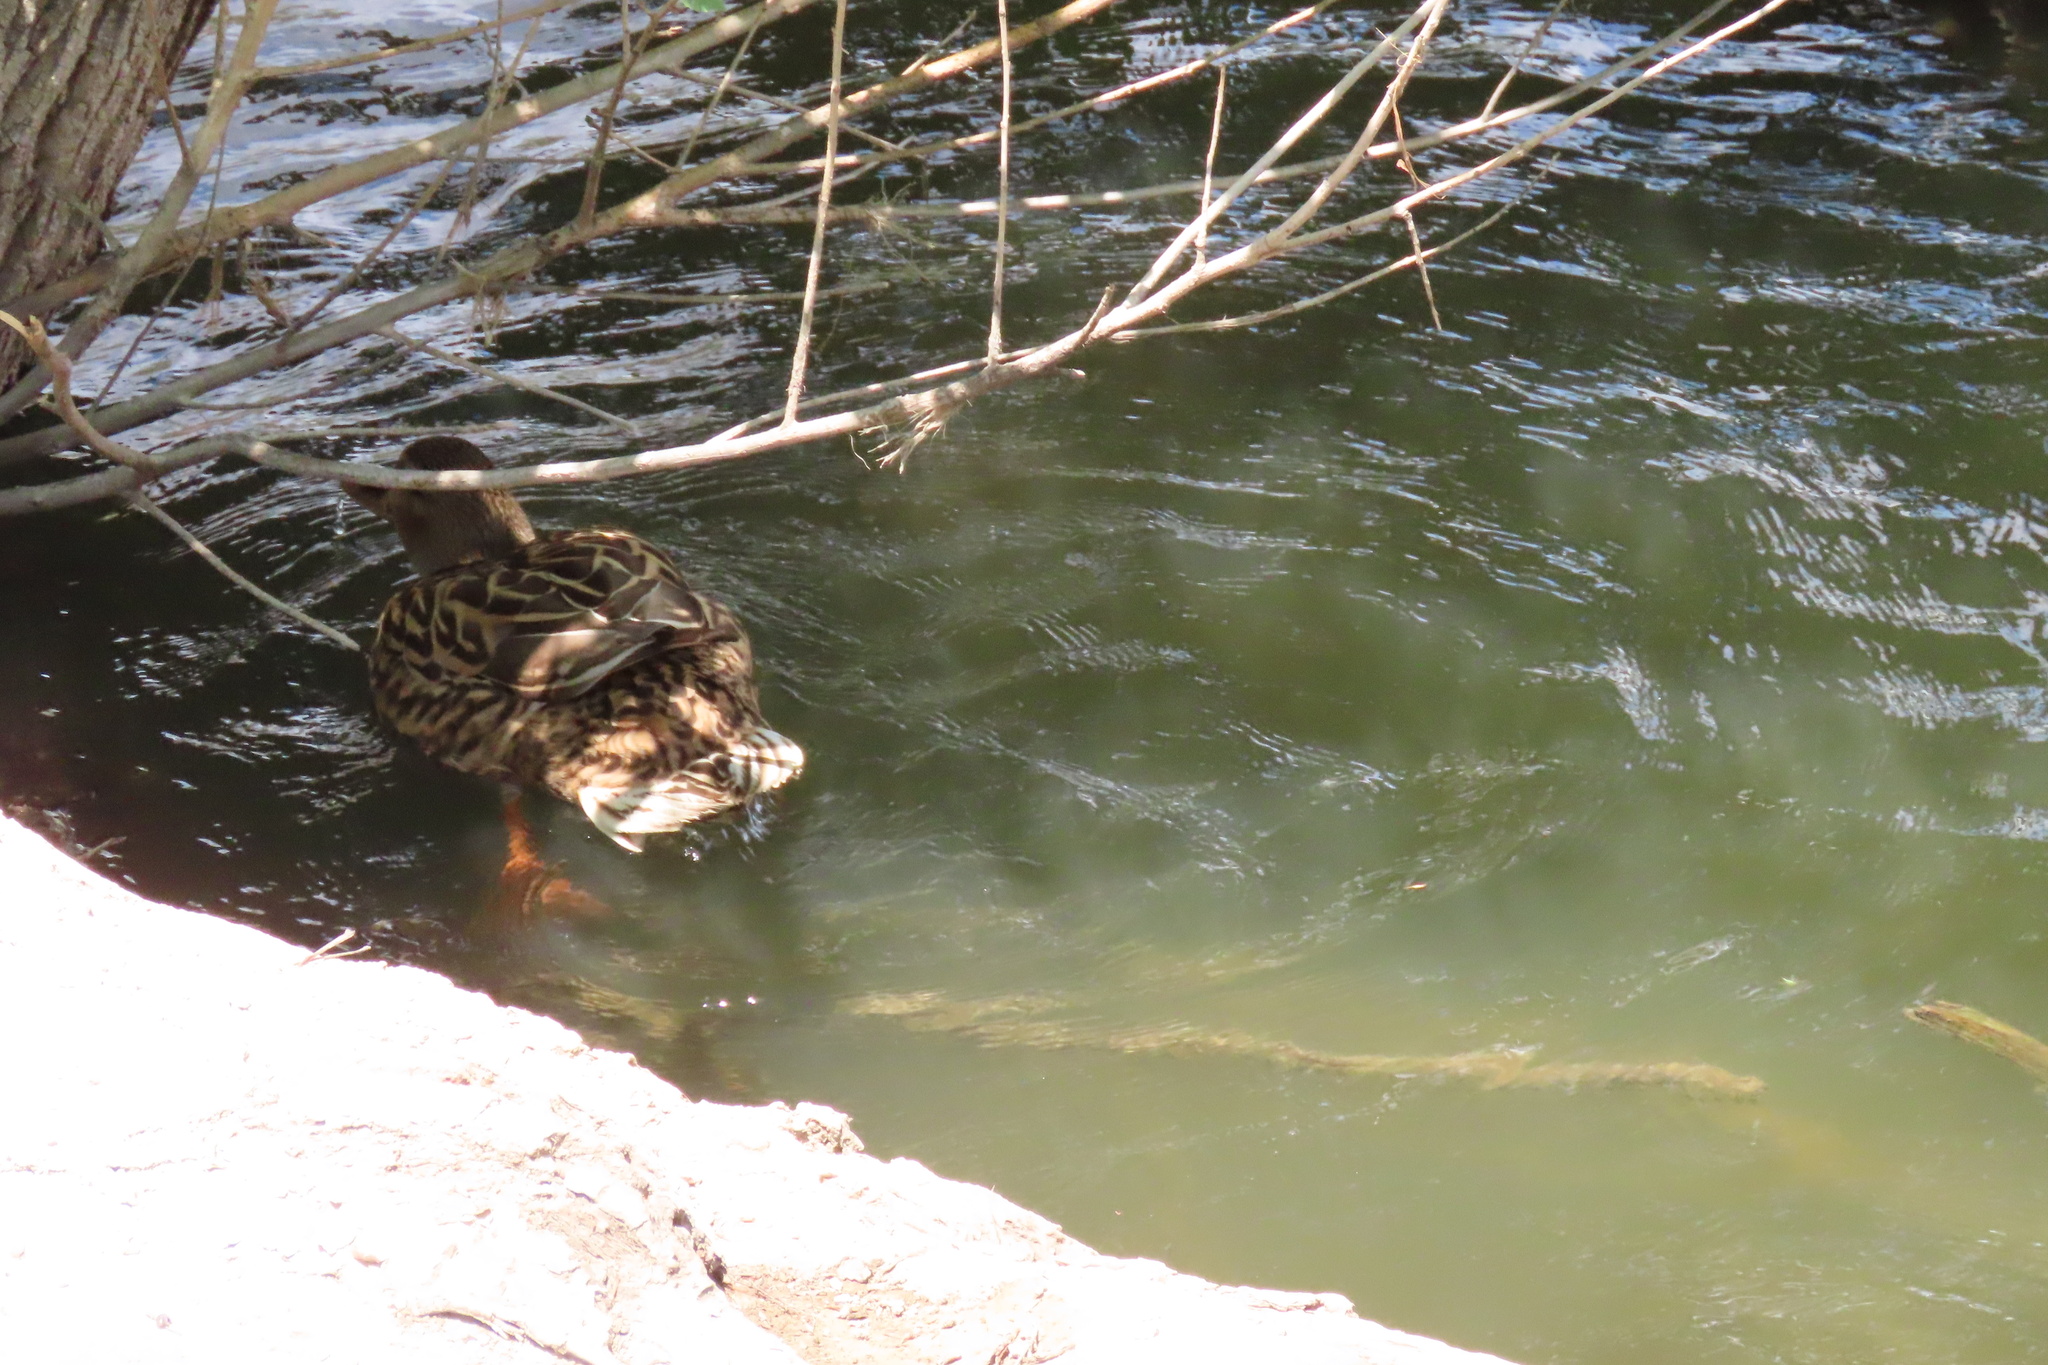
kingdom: Animalia
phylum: Chordata
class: Aves
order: Anseriformes
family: Anatidae
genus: Anas
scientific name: Anas platyrhynchos
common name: Mallard
